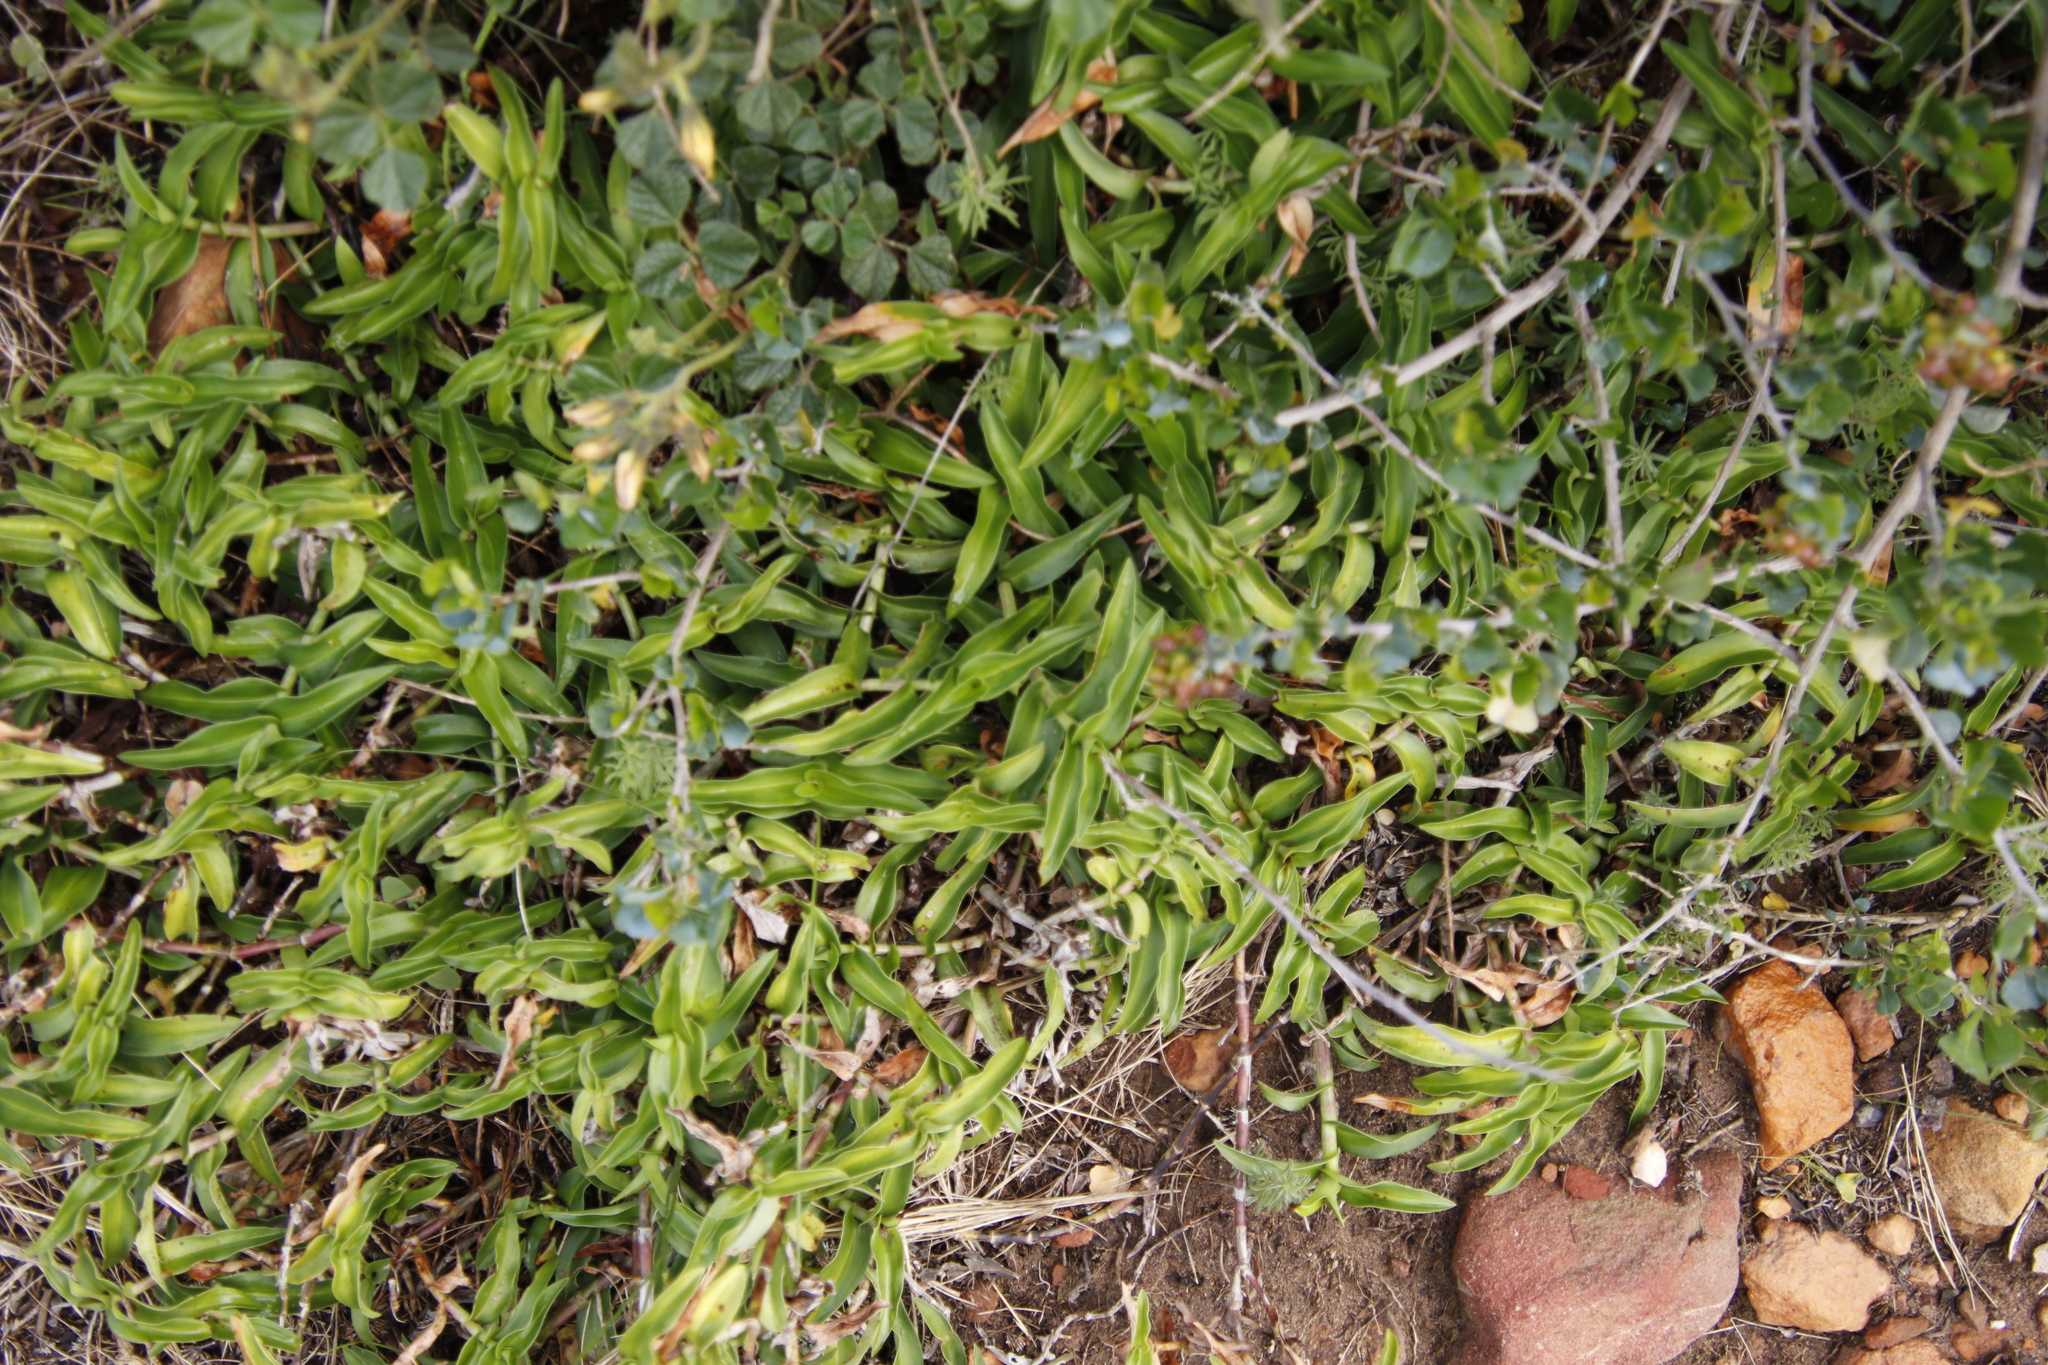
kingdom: Plantae
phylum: Tracheophyta
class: Liliopsida
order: Commelinales
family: Commelinaceae
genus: Commelina
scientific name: Commelina africana
